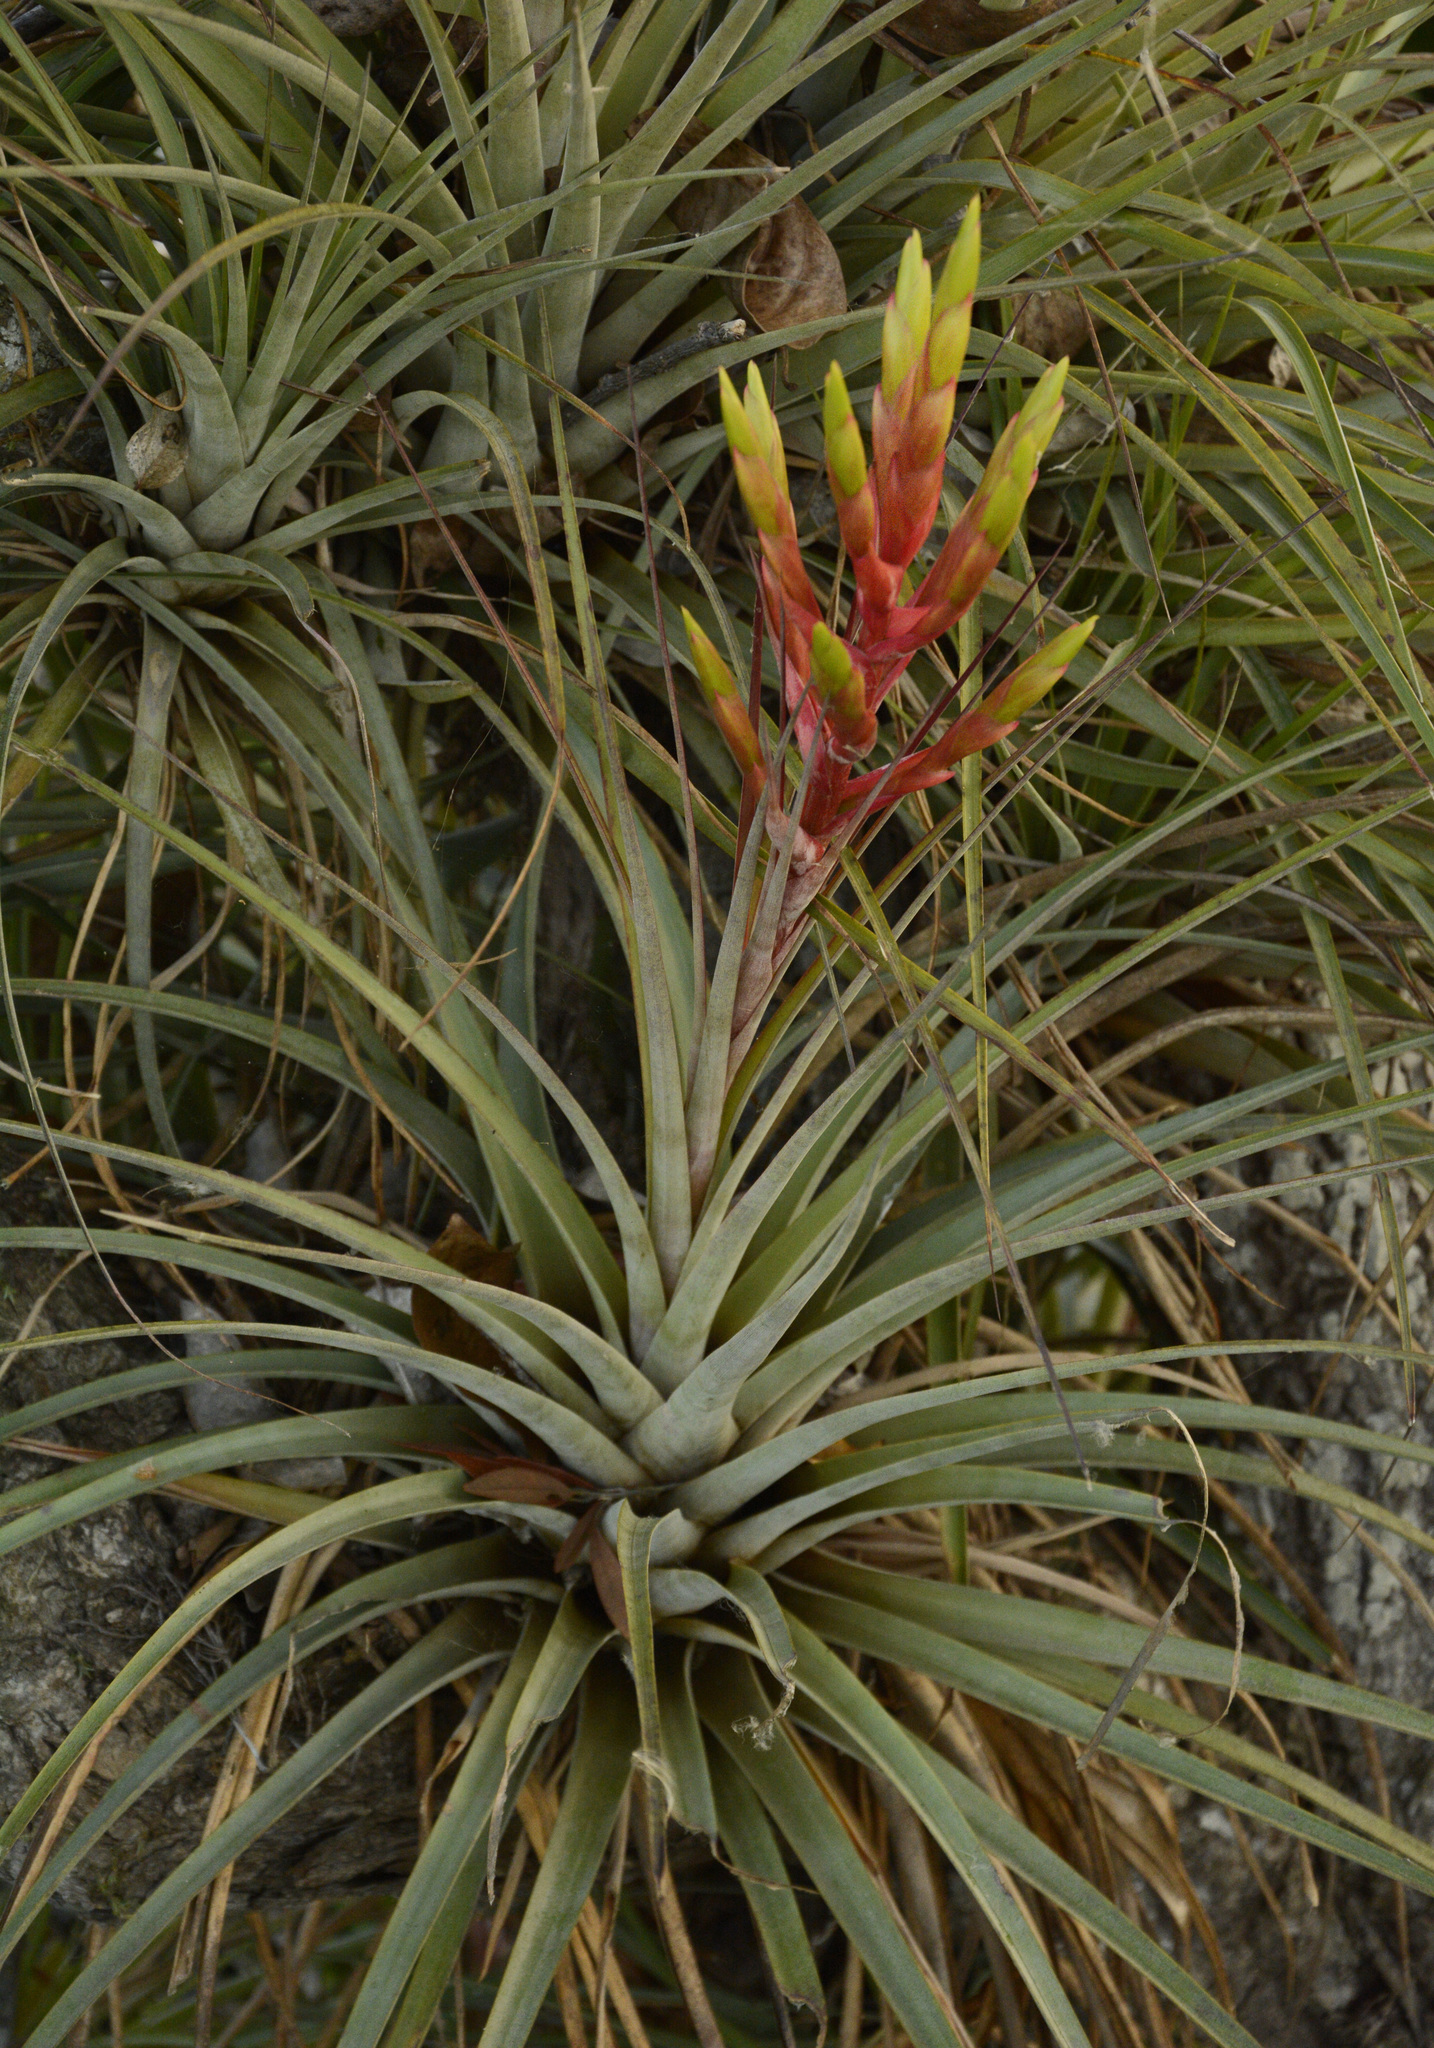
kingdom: Plantae
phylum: Tracheophyta
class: Liliopsida
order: Poales
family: Bromeliaceae
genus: Tillandsia
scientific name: Tillandsia fasciculata
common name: Giant airplant
